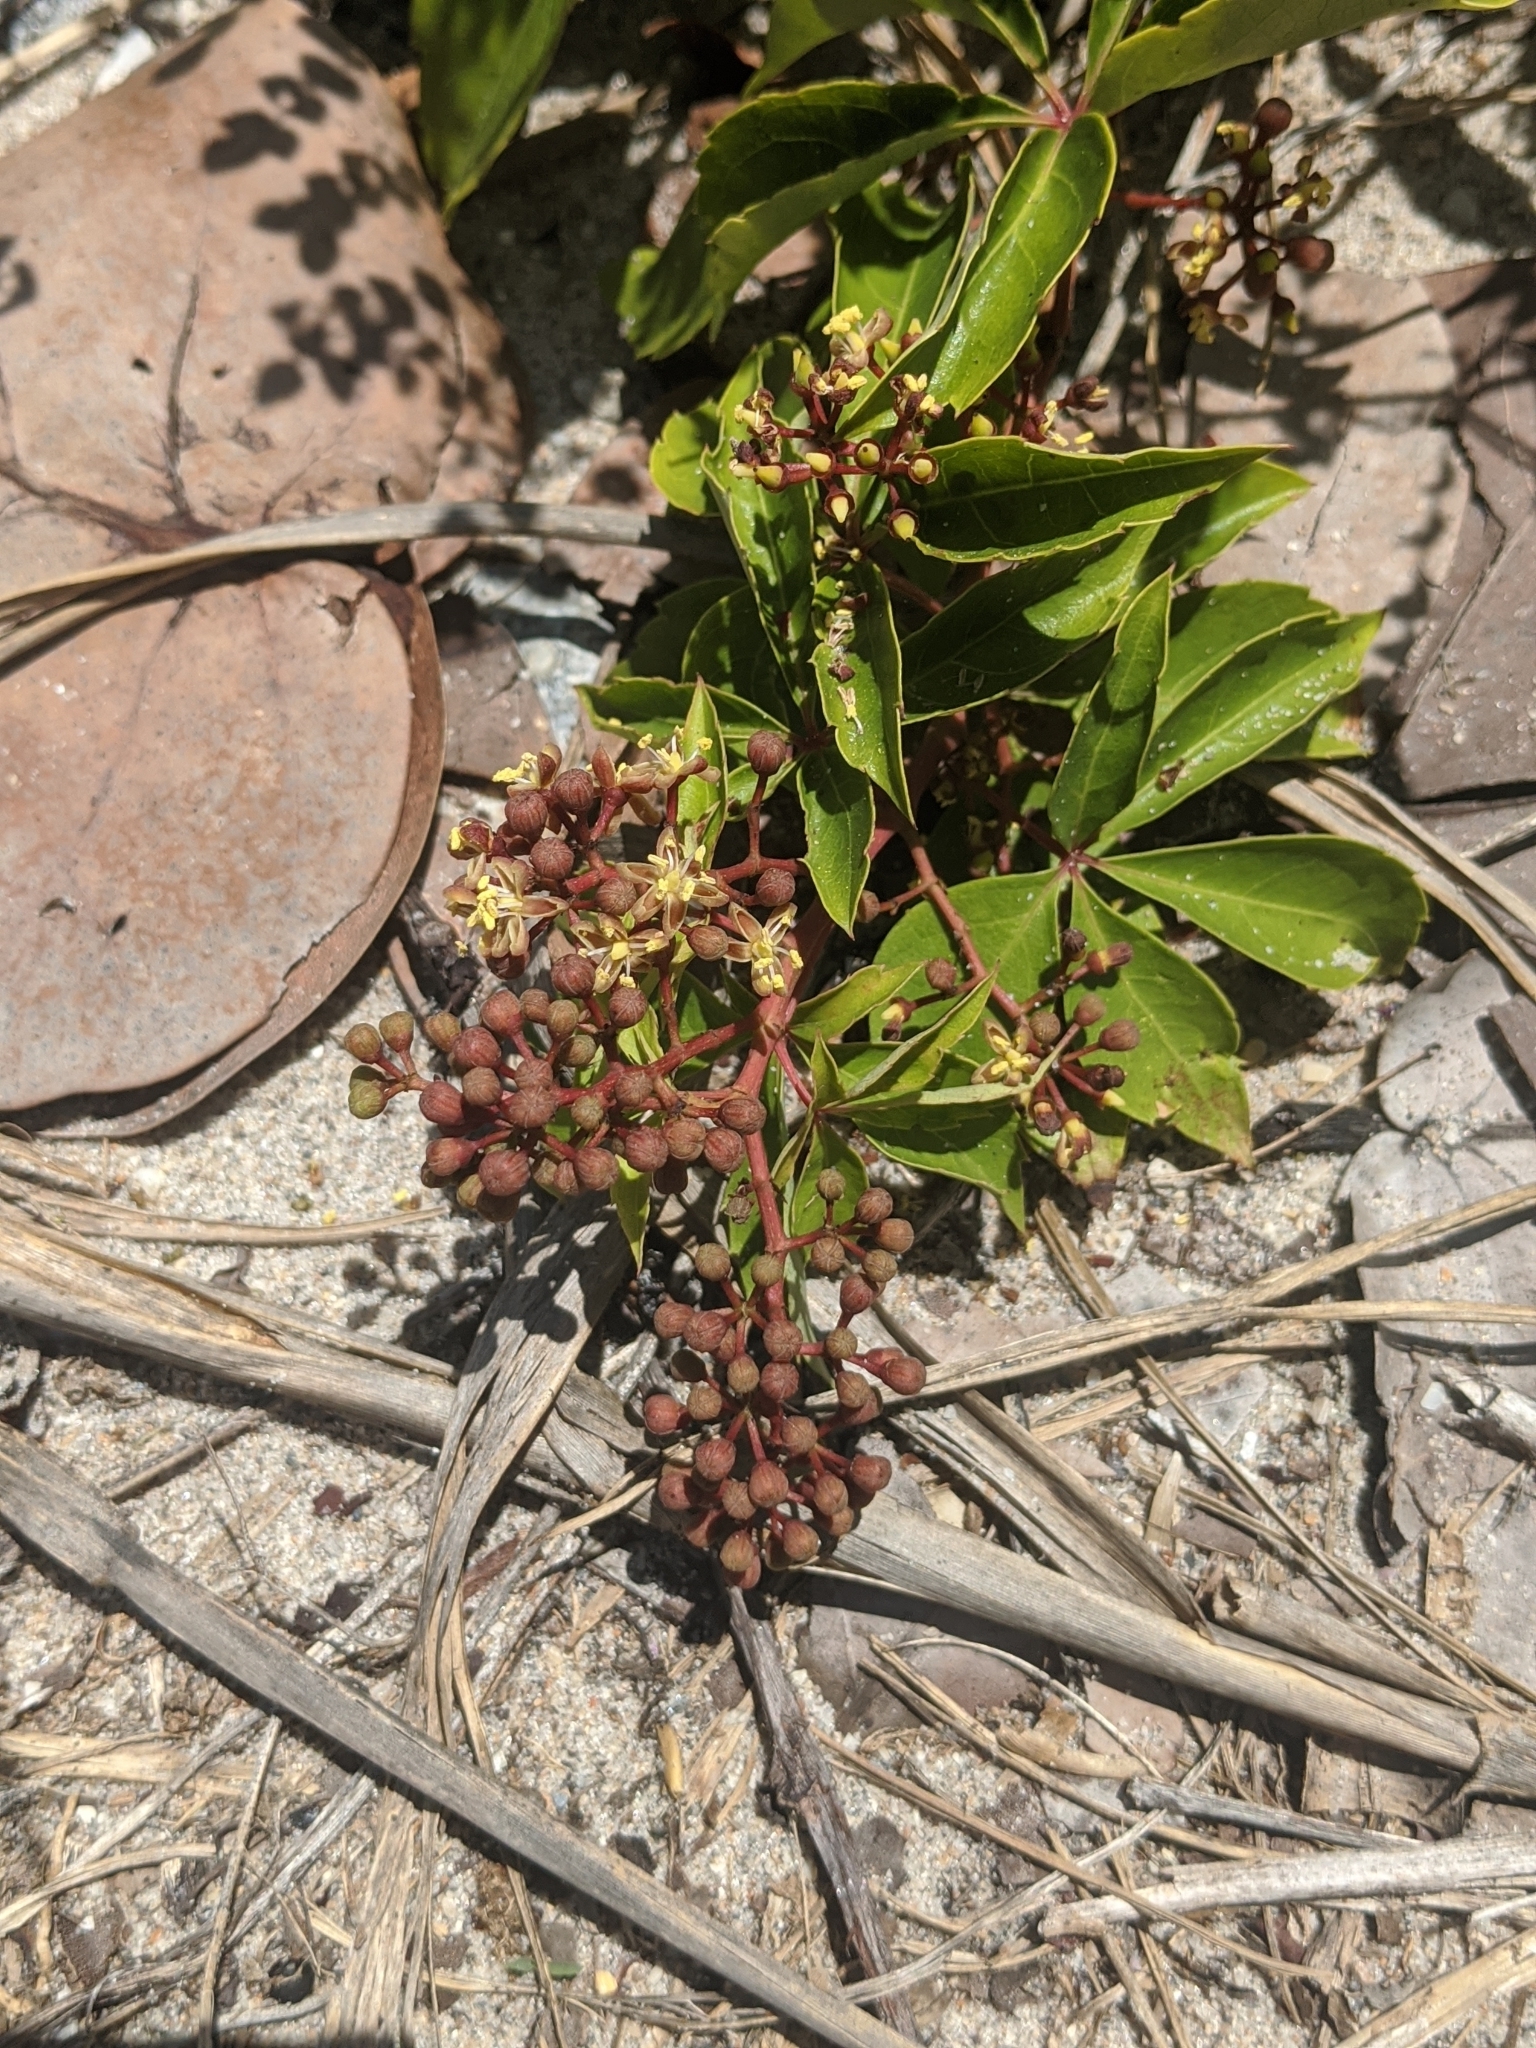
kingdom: Plantae
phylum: Tracheophyta
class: Magnoliopsida
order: Vitales
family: Vitaceae
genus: Parthenocissus
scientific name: Parthenocissus quinquefolia
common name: Virginia-creeper
